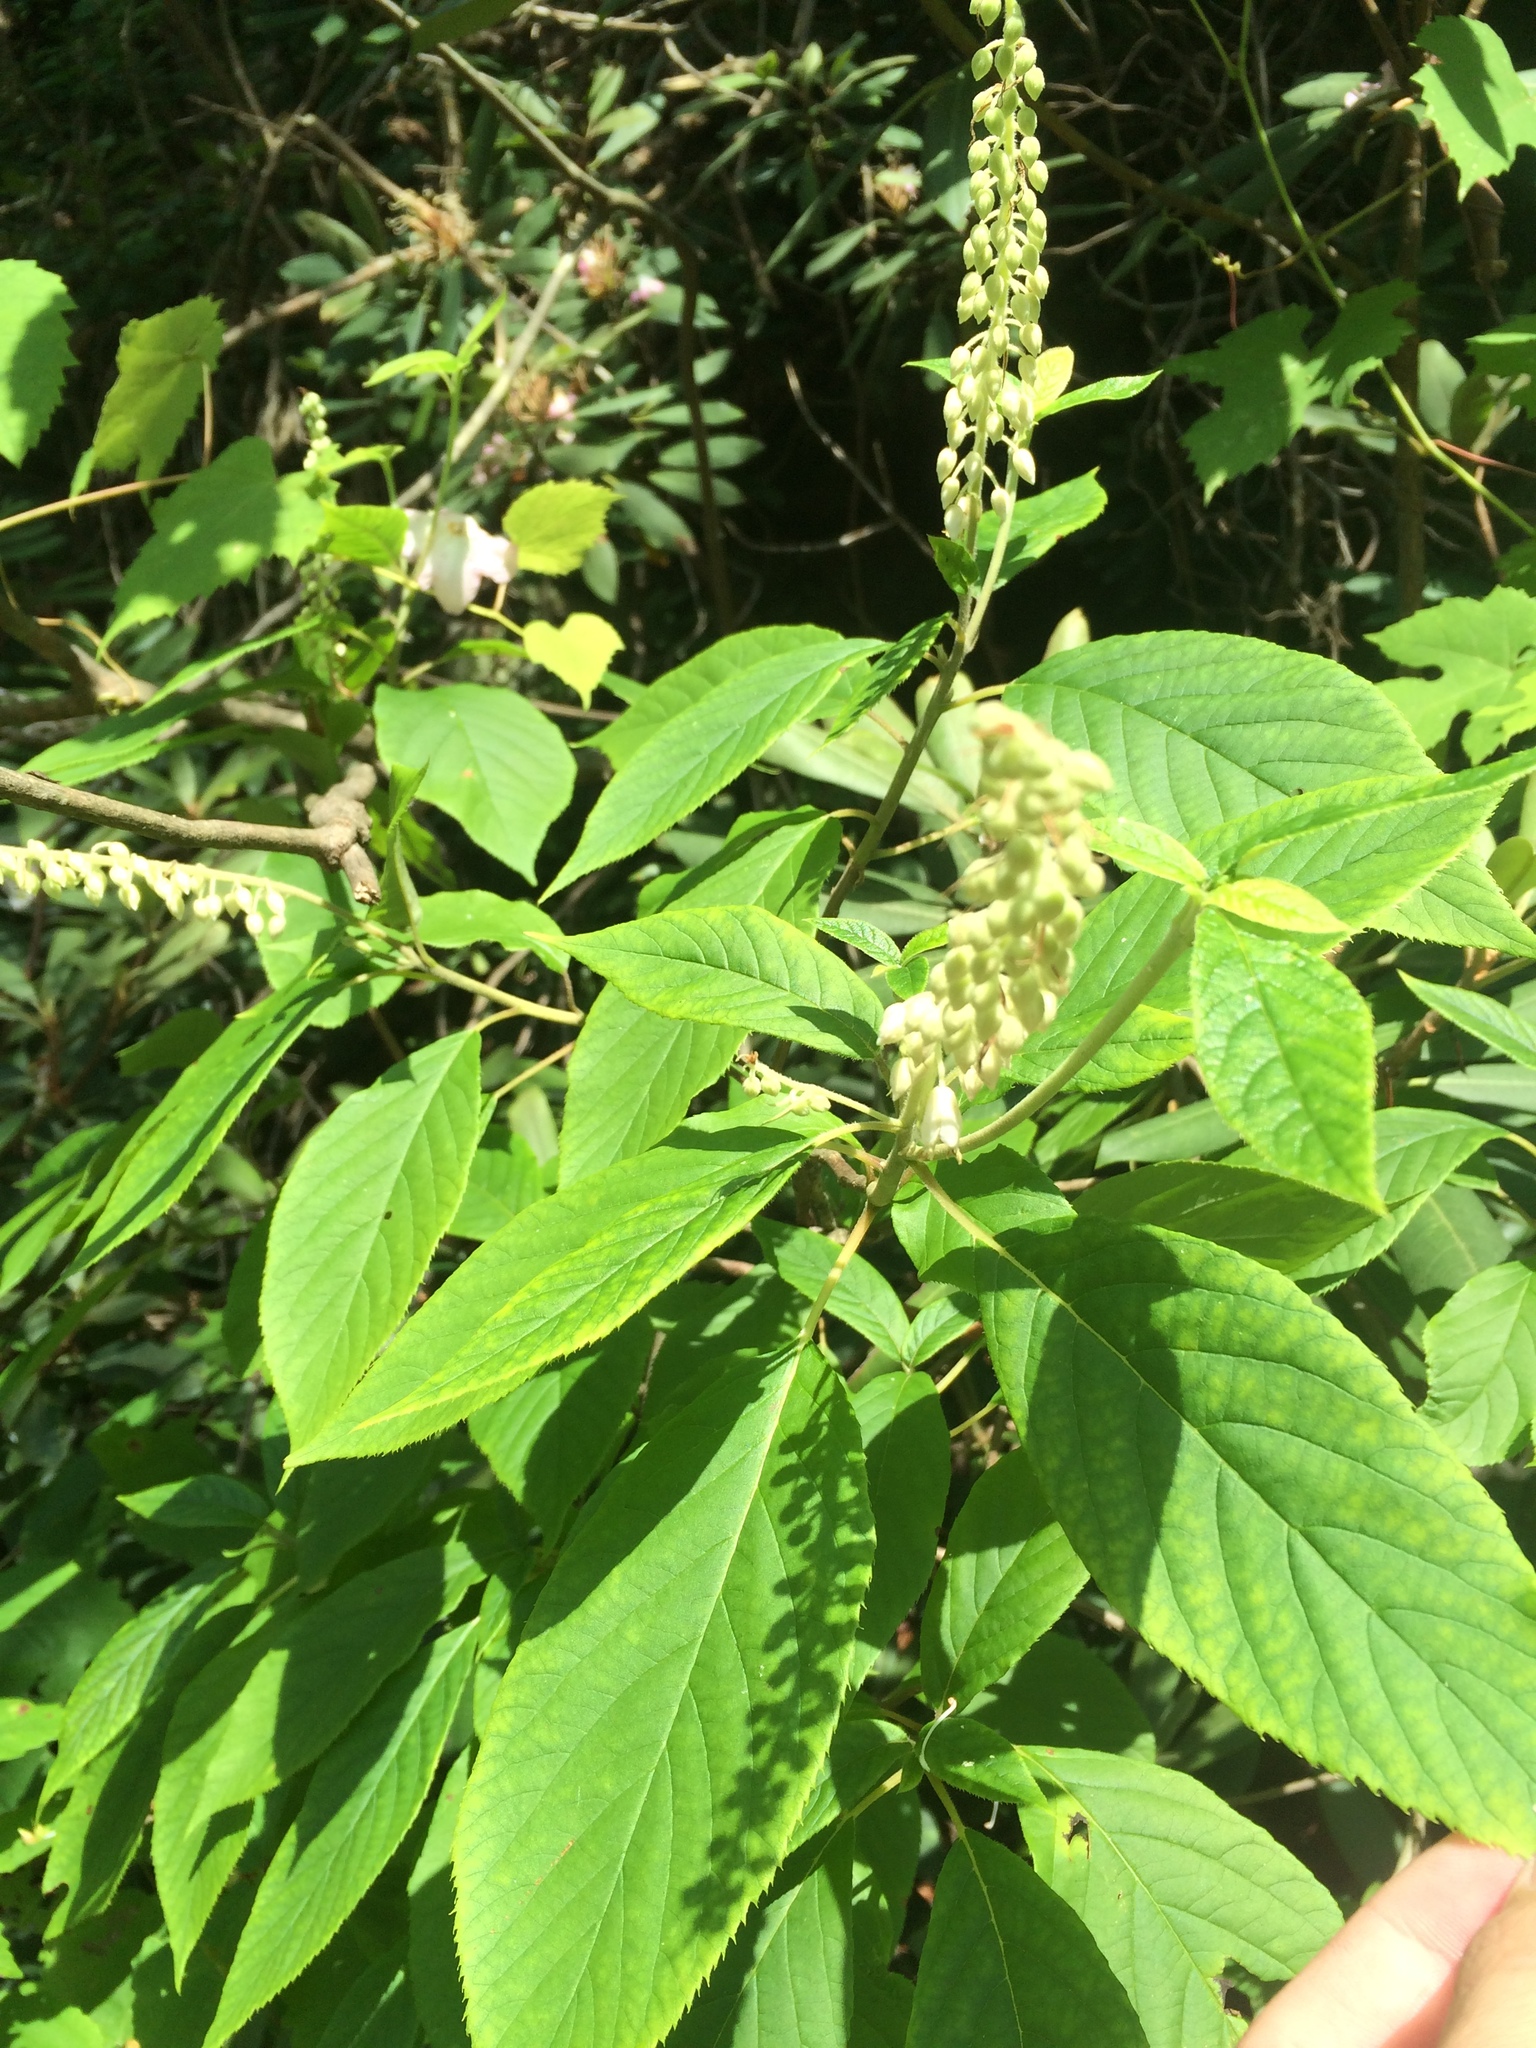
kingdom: Plantae
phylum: Tracheophyta
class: Magnoliopsida
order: Ericales
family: Clethraceae
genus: Clethra
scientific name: Clethra acuminata
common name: Mountain sweet pepperbush
